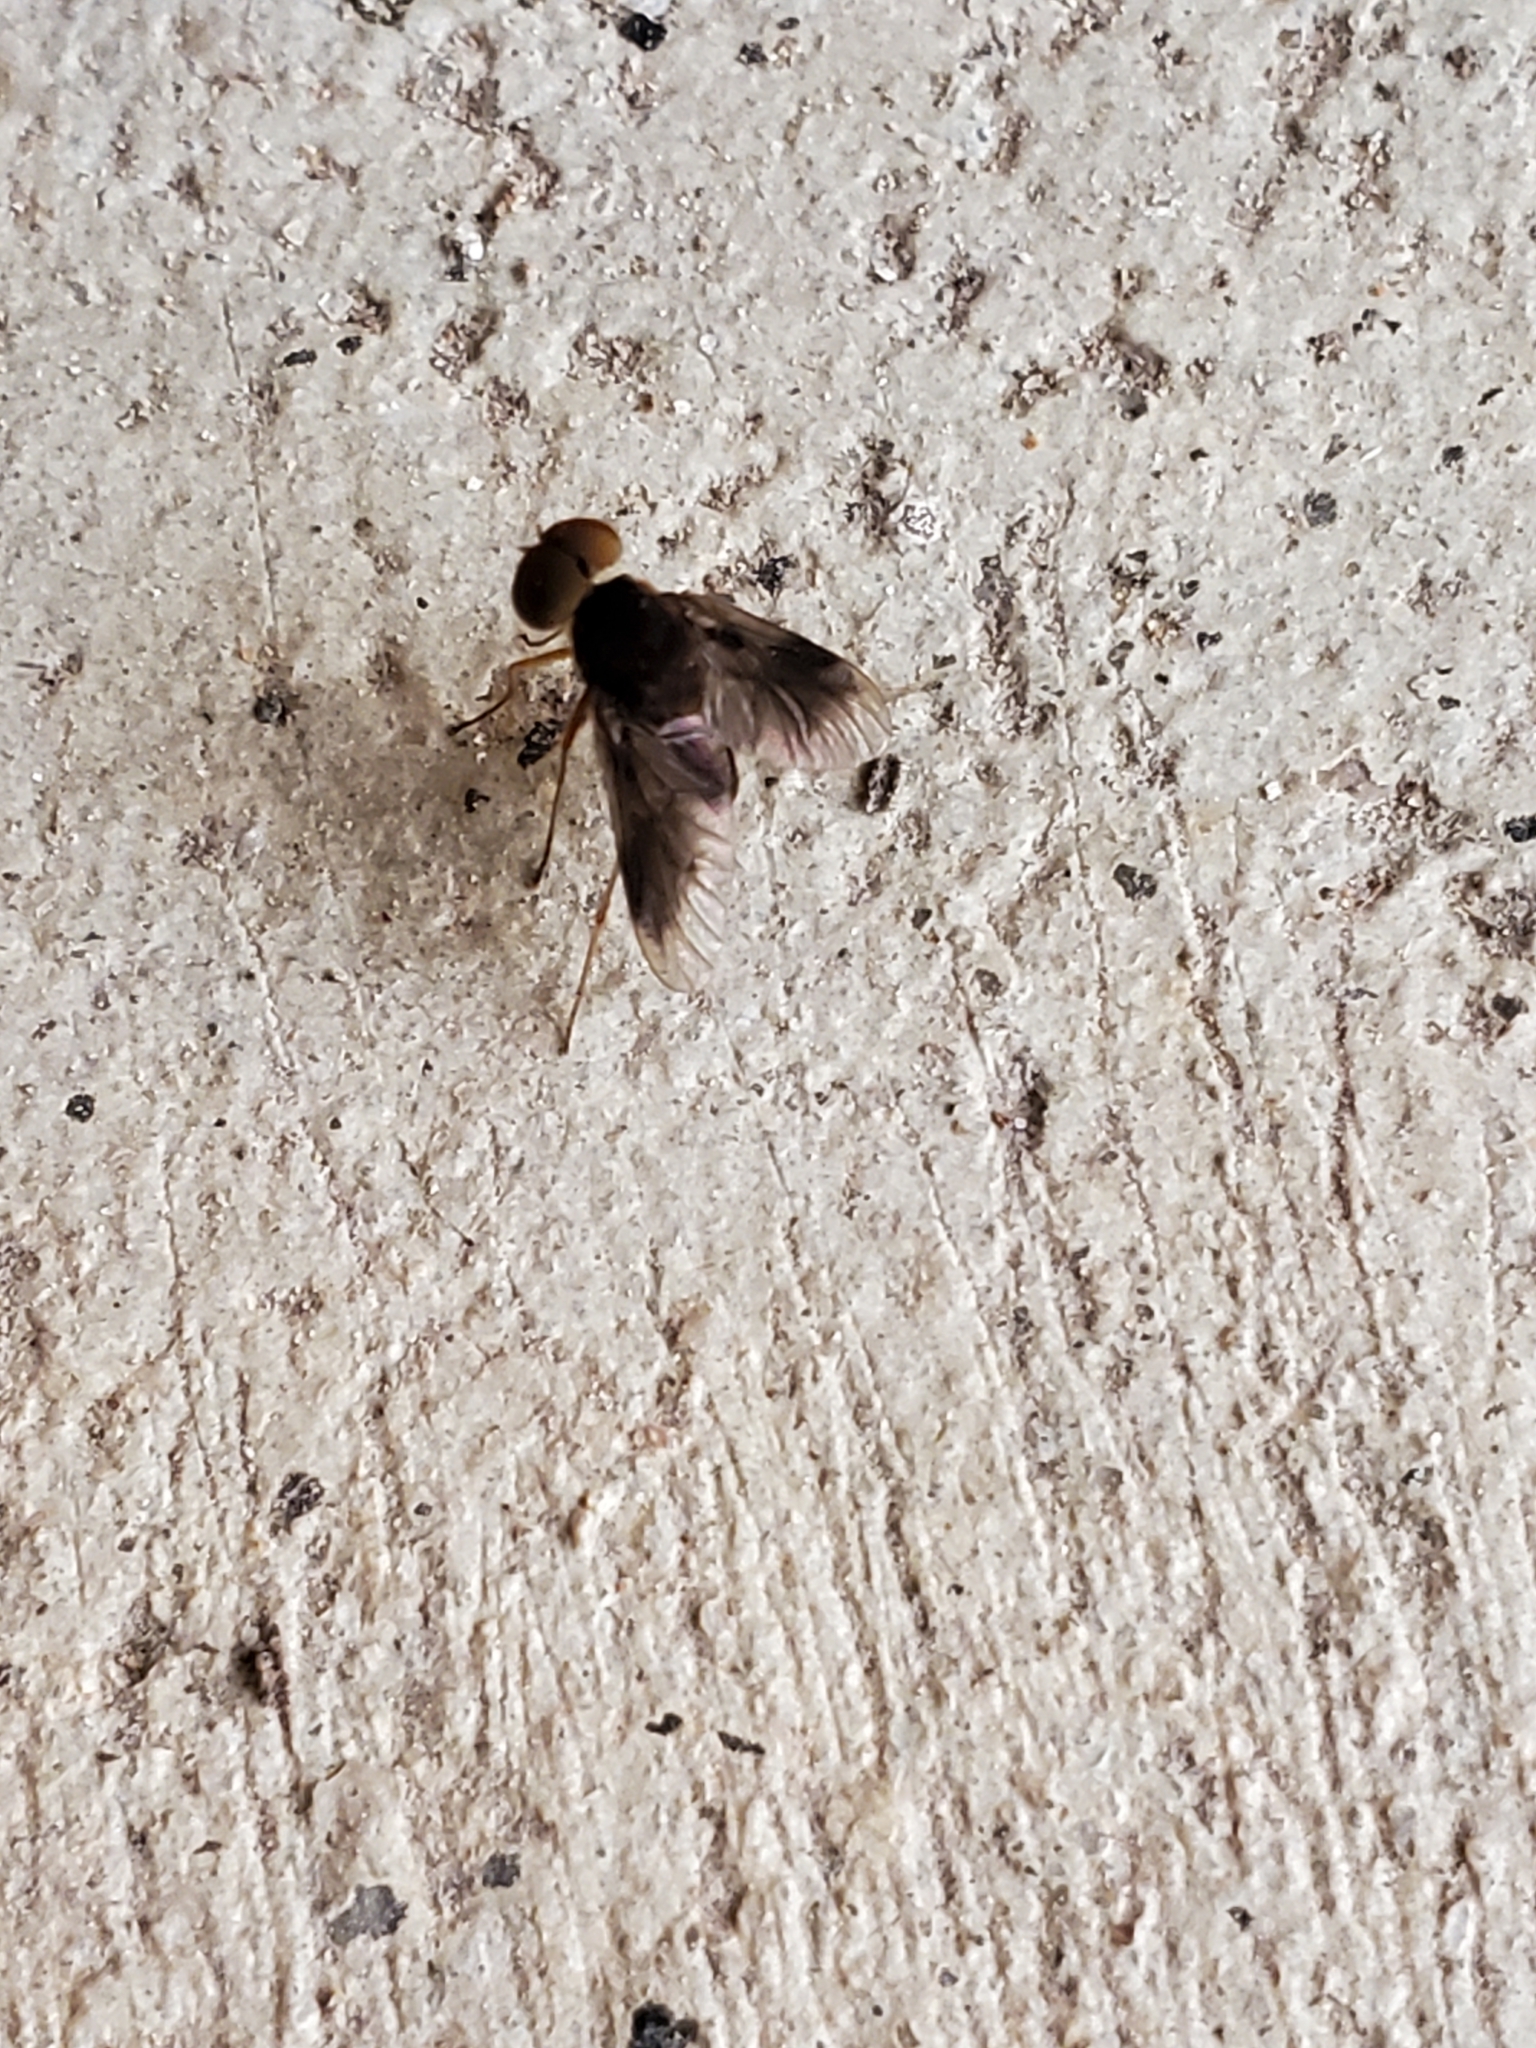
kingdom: Animalia
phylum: Arthropoda
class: Insecta
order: Diptera
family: Rhagionidae
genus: Chrysopilus
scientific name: Chrysopilus quadratus
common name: Quadrate snipe fly
